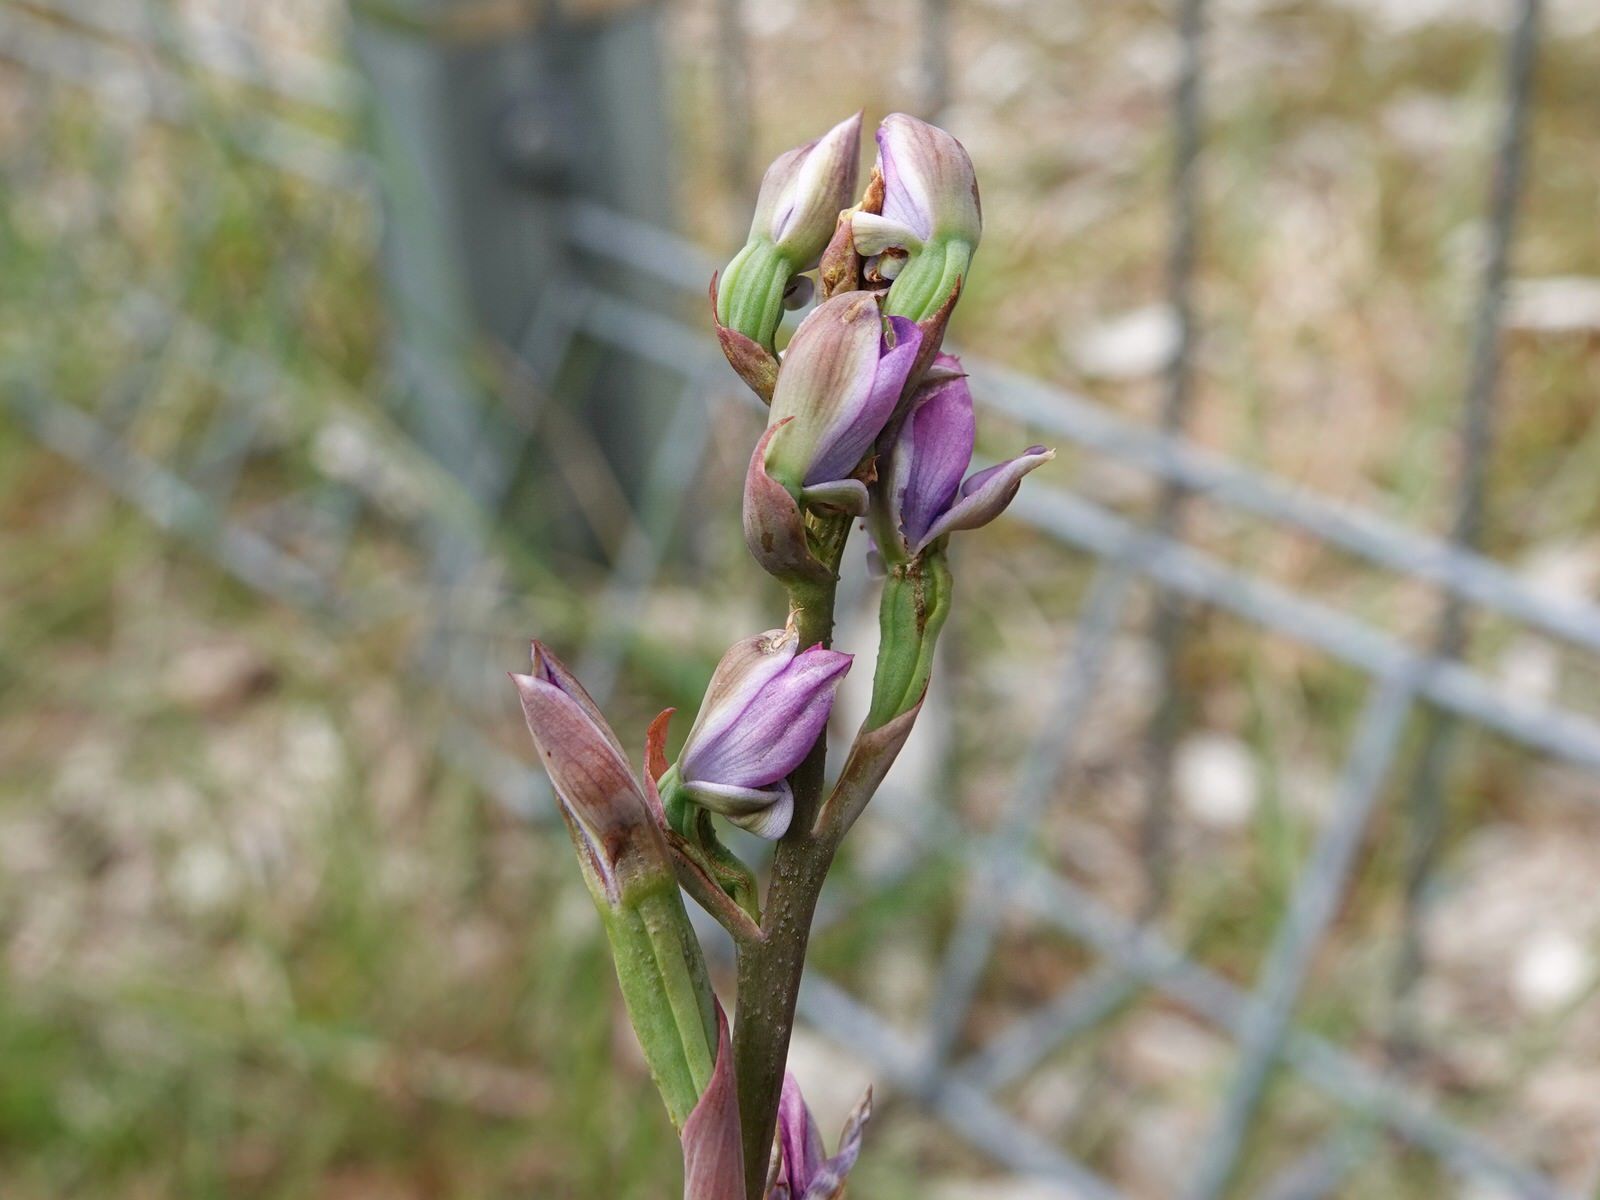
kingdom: Plantae
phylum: Tracheophyta
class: Liliopsida
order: Asparagales
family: Orchidaceae
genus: Thelymitra
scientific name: Thelymitra pauciflora
